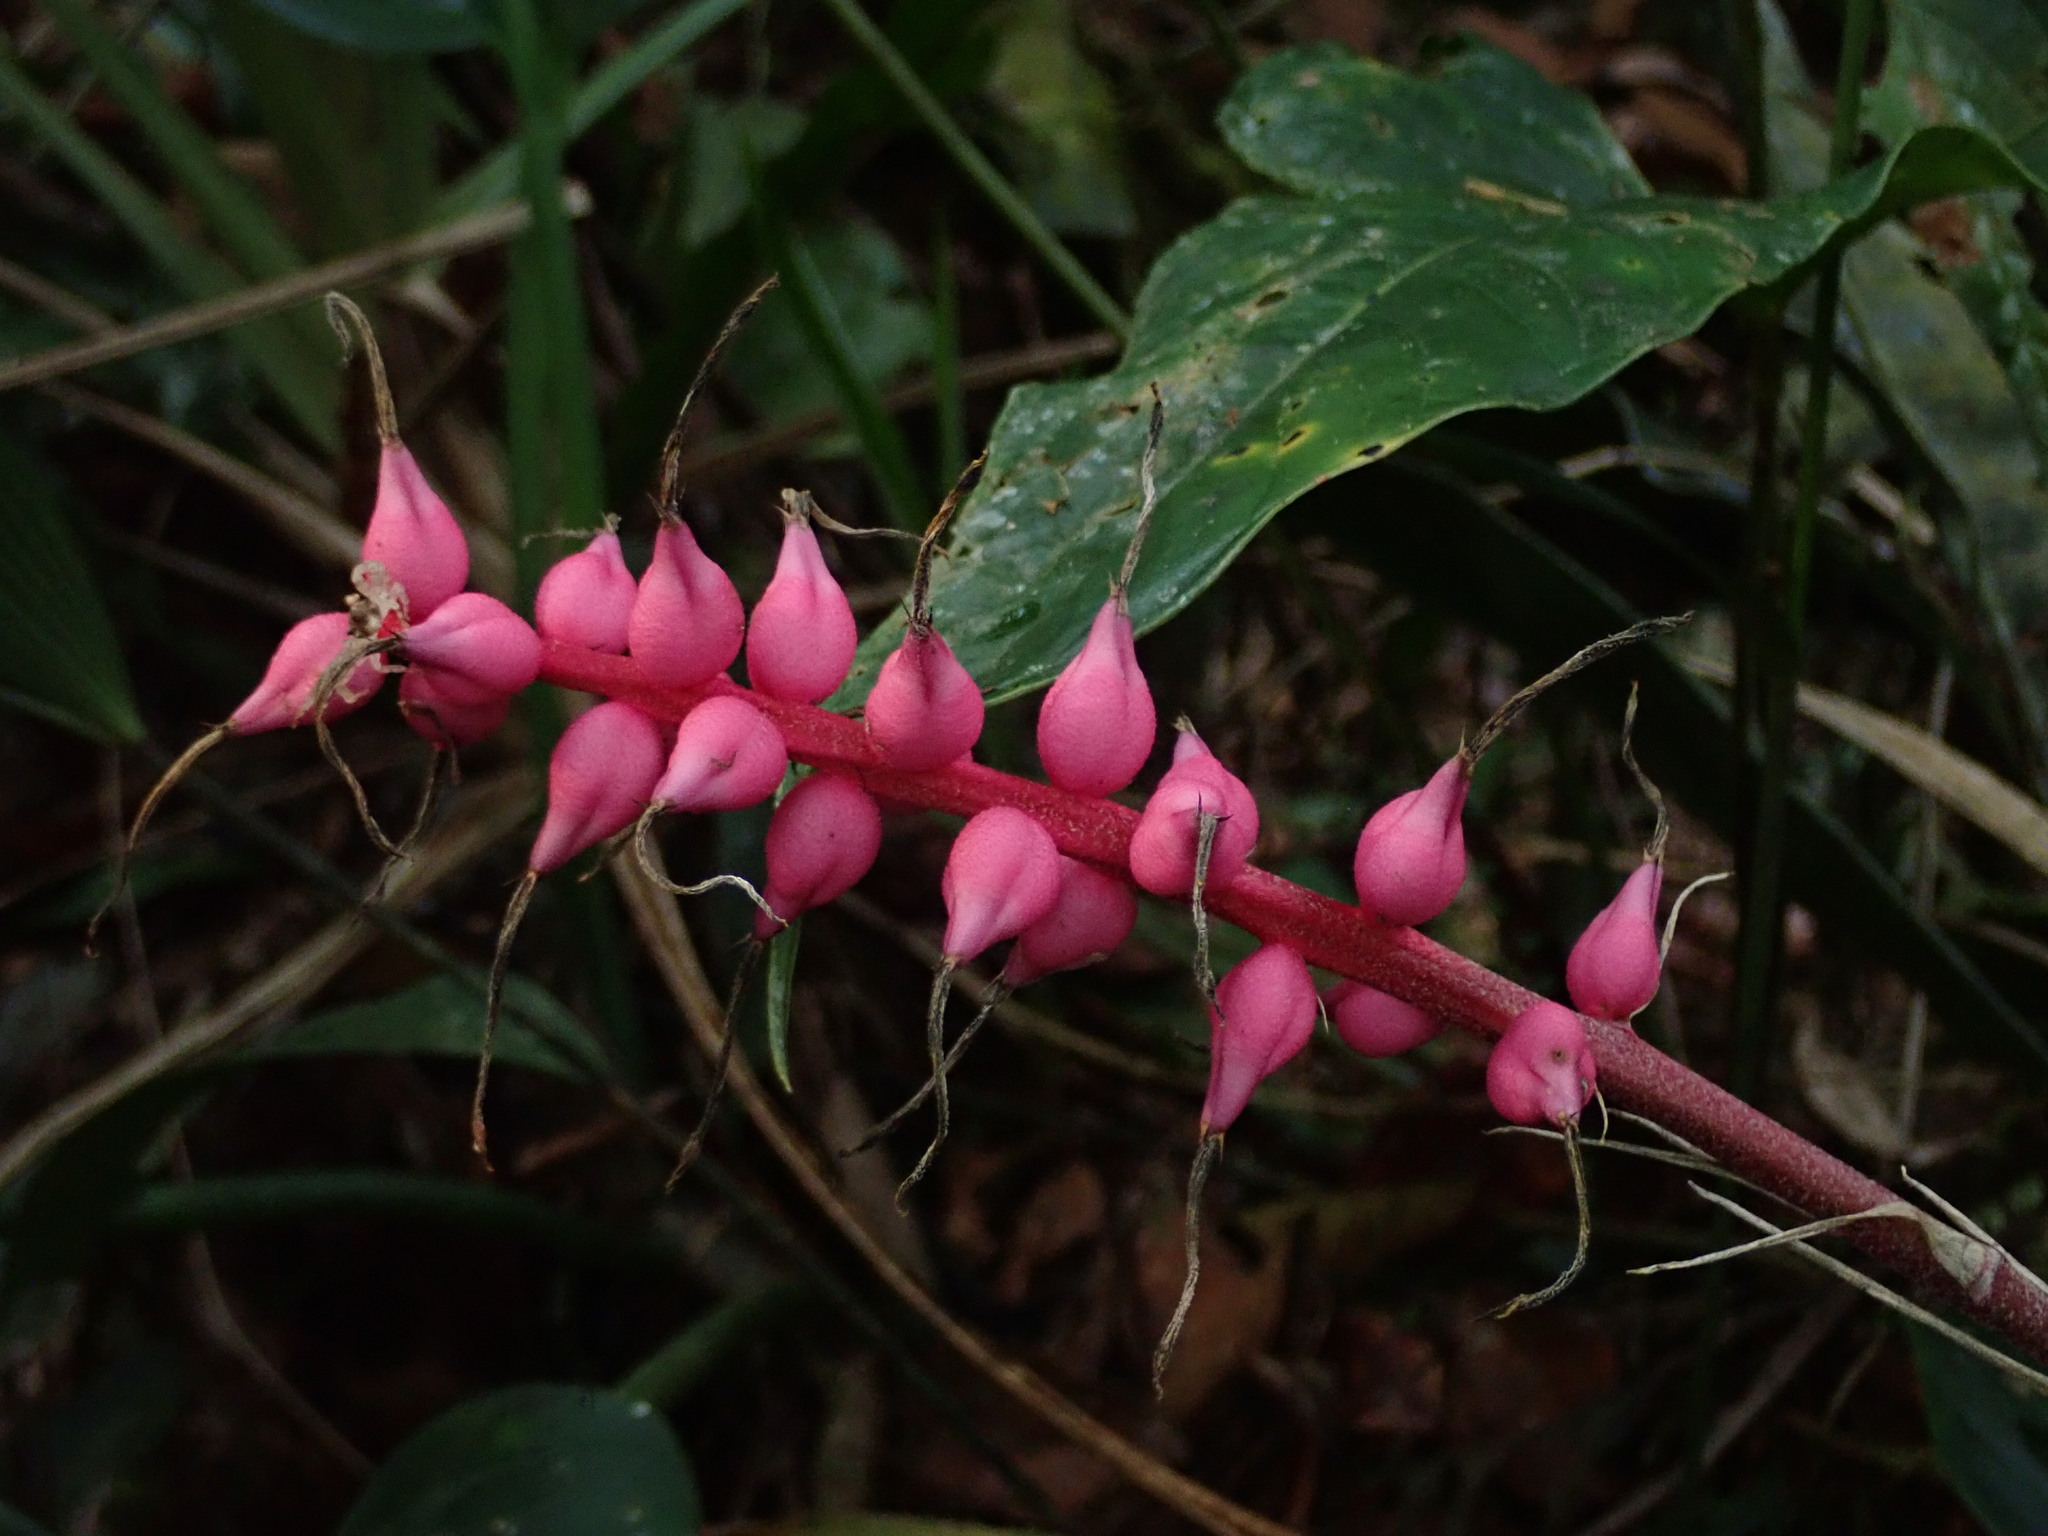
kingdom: Plantae
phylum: Tracheophyta
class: Liliopsida
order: Poales
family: Bromeliaceae
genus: Ronnbergia
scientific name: Ronnbergia drakeana
